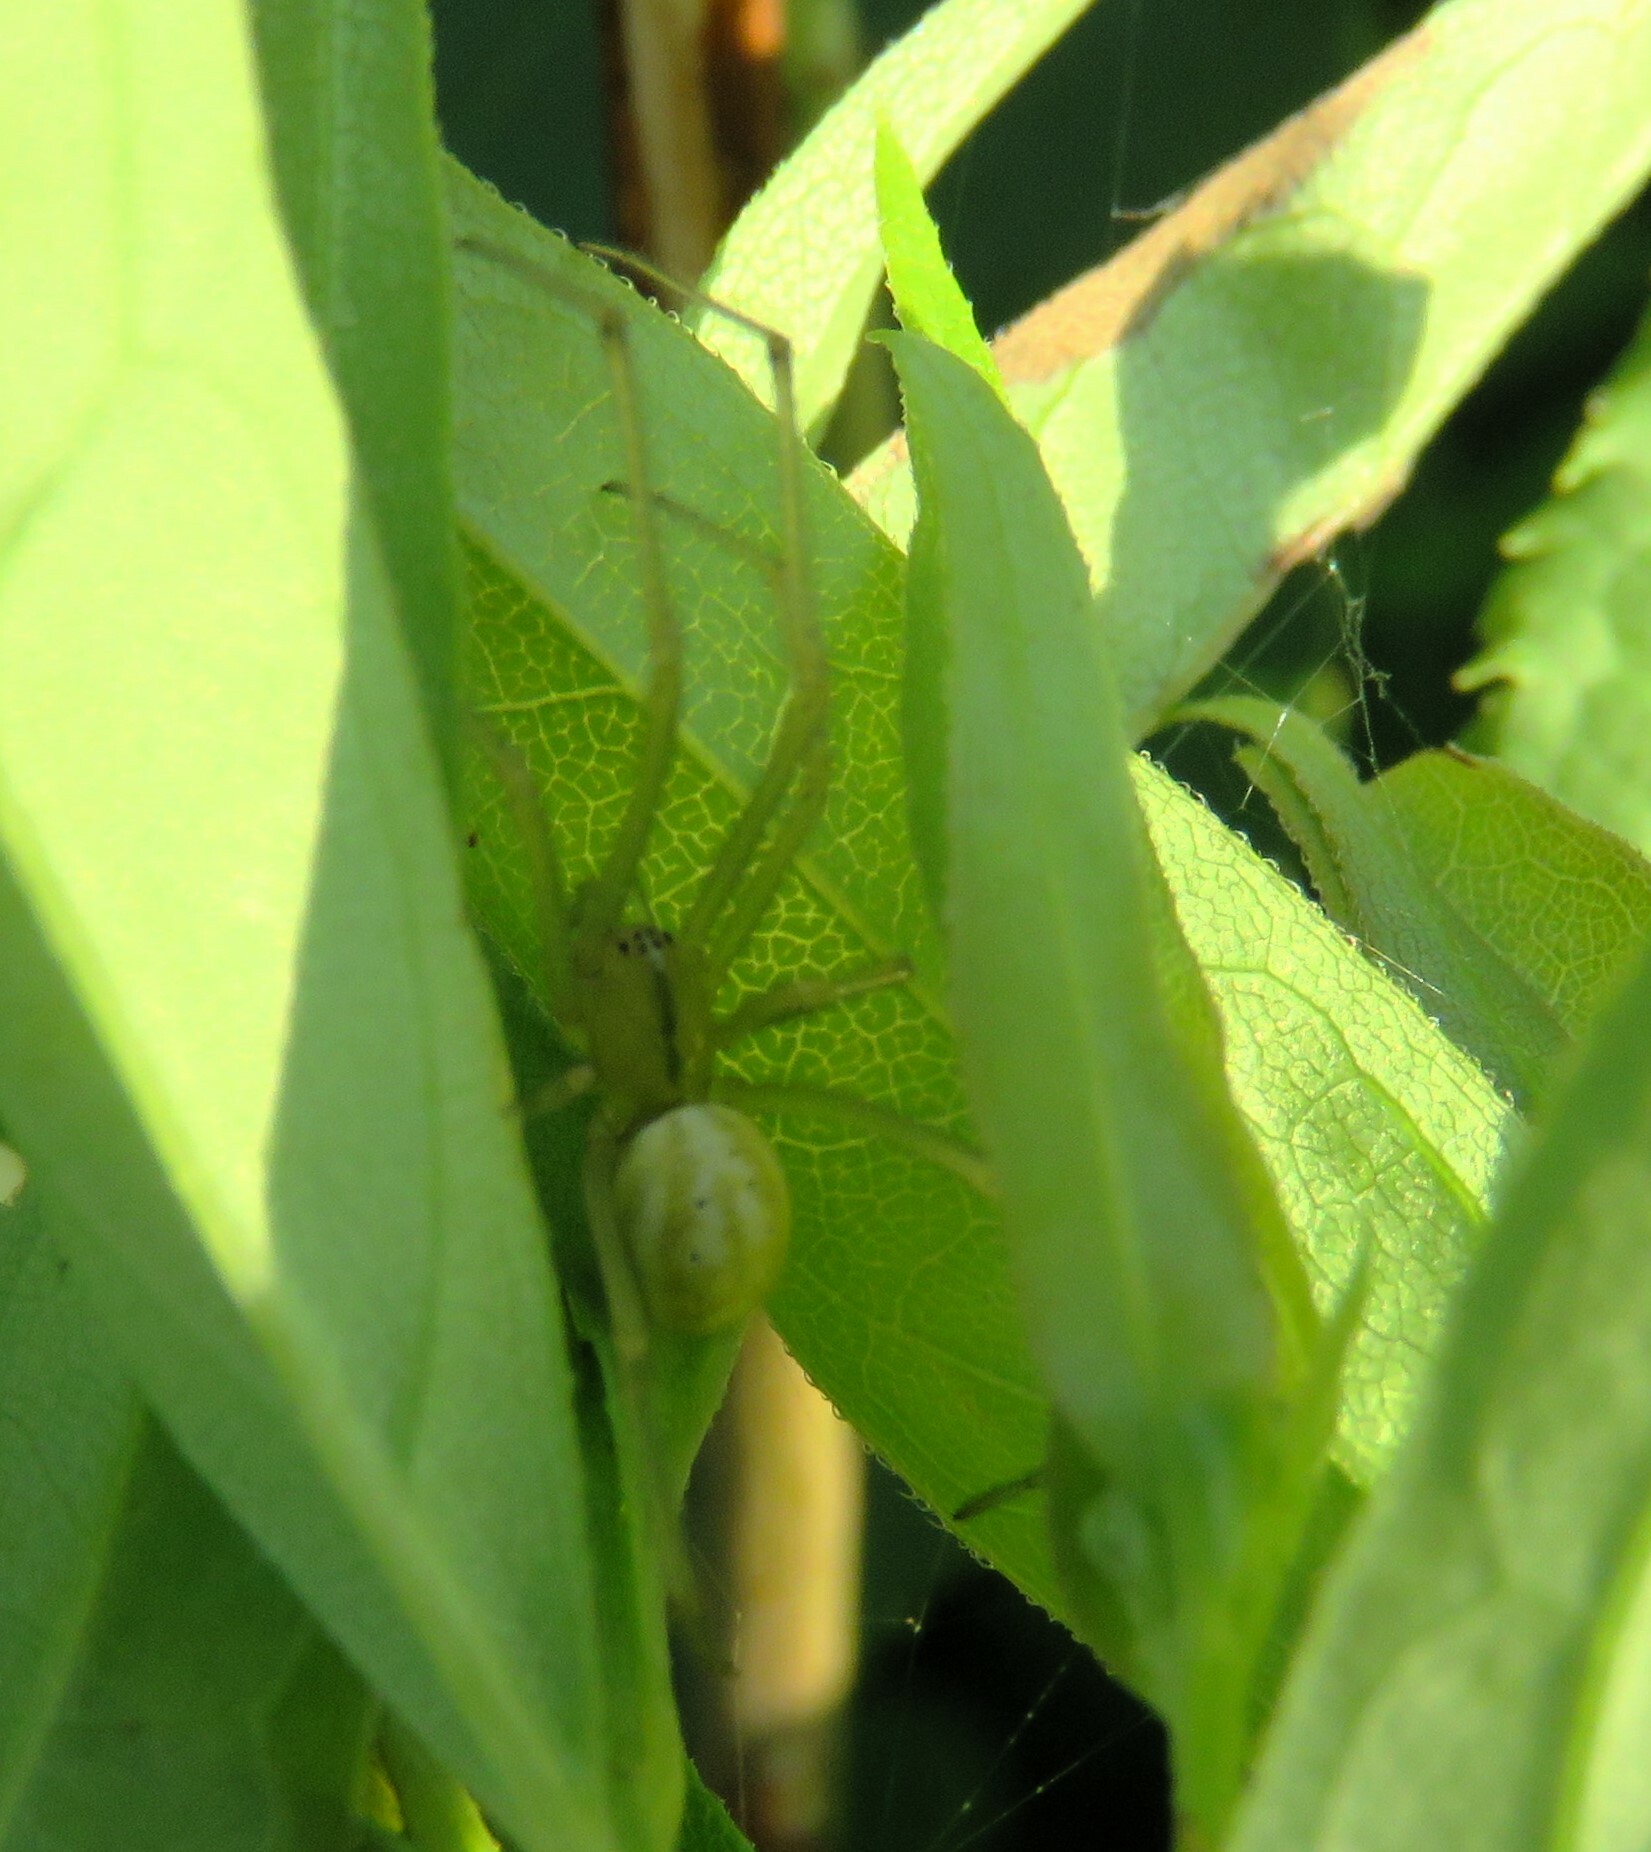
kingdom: Animalia
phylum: Arthropoda
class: Arachnida
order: Araneae
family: Theridiidae
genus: Enoplognatha
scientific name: Enoplognatha ovata
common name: Common candy-striped spider
